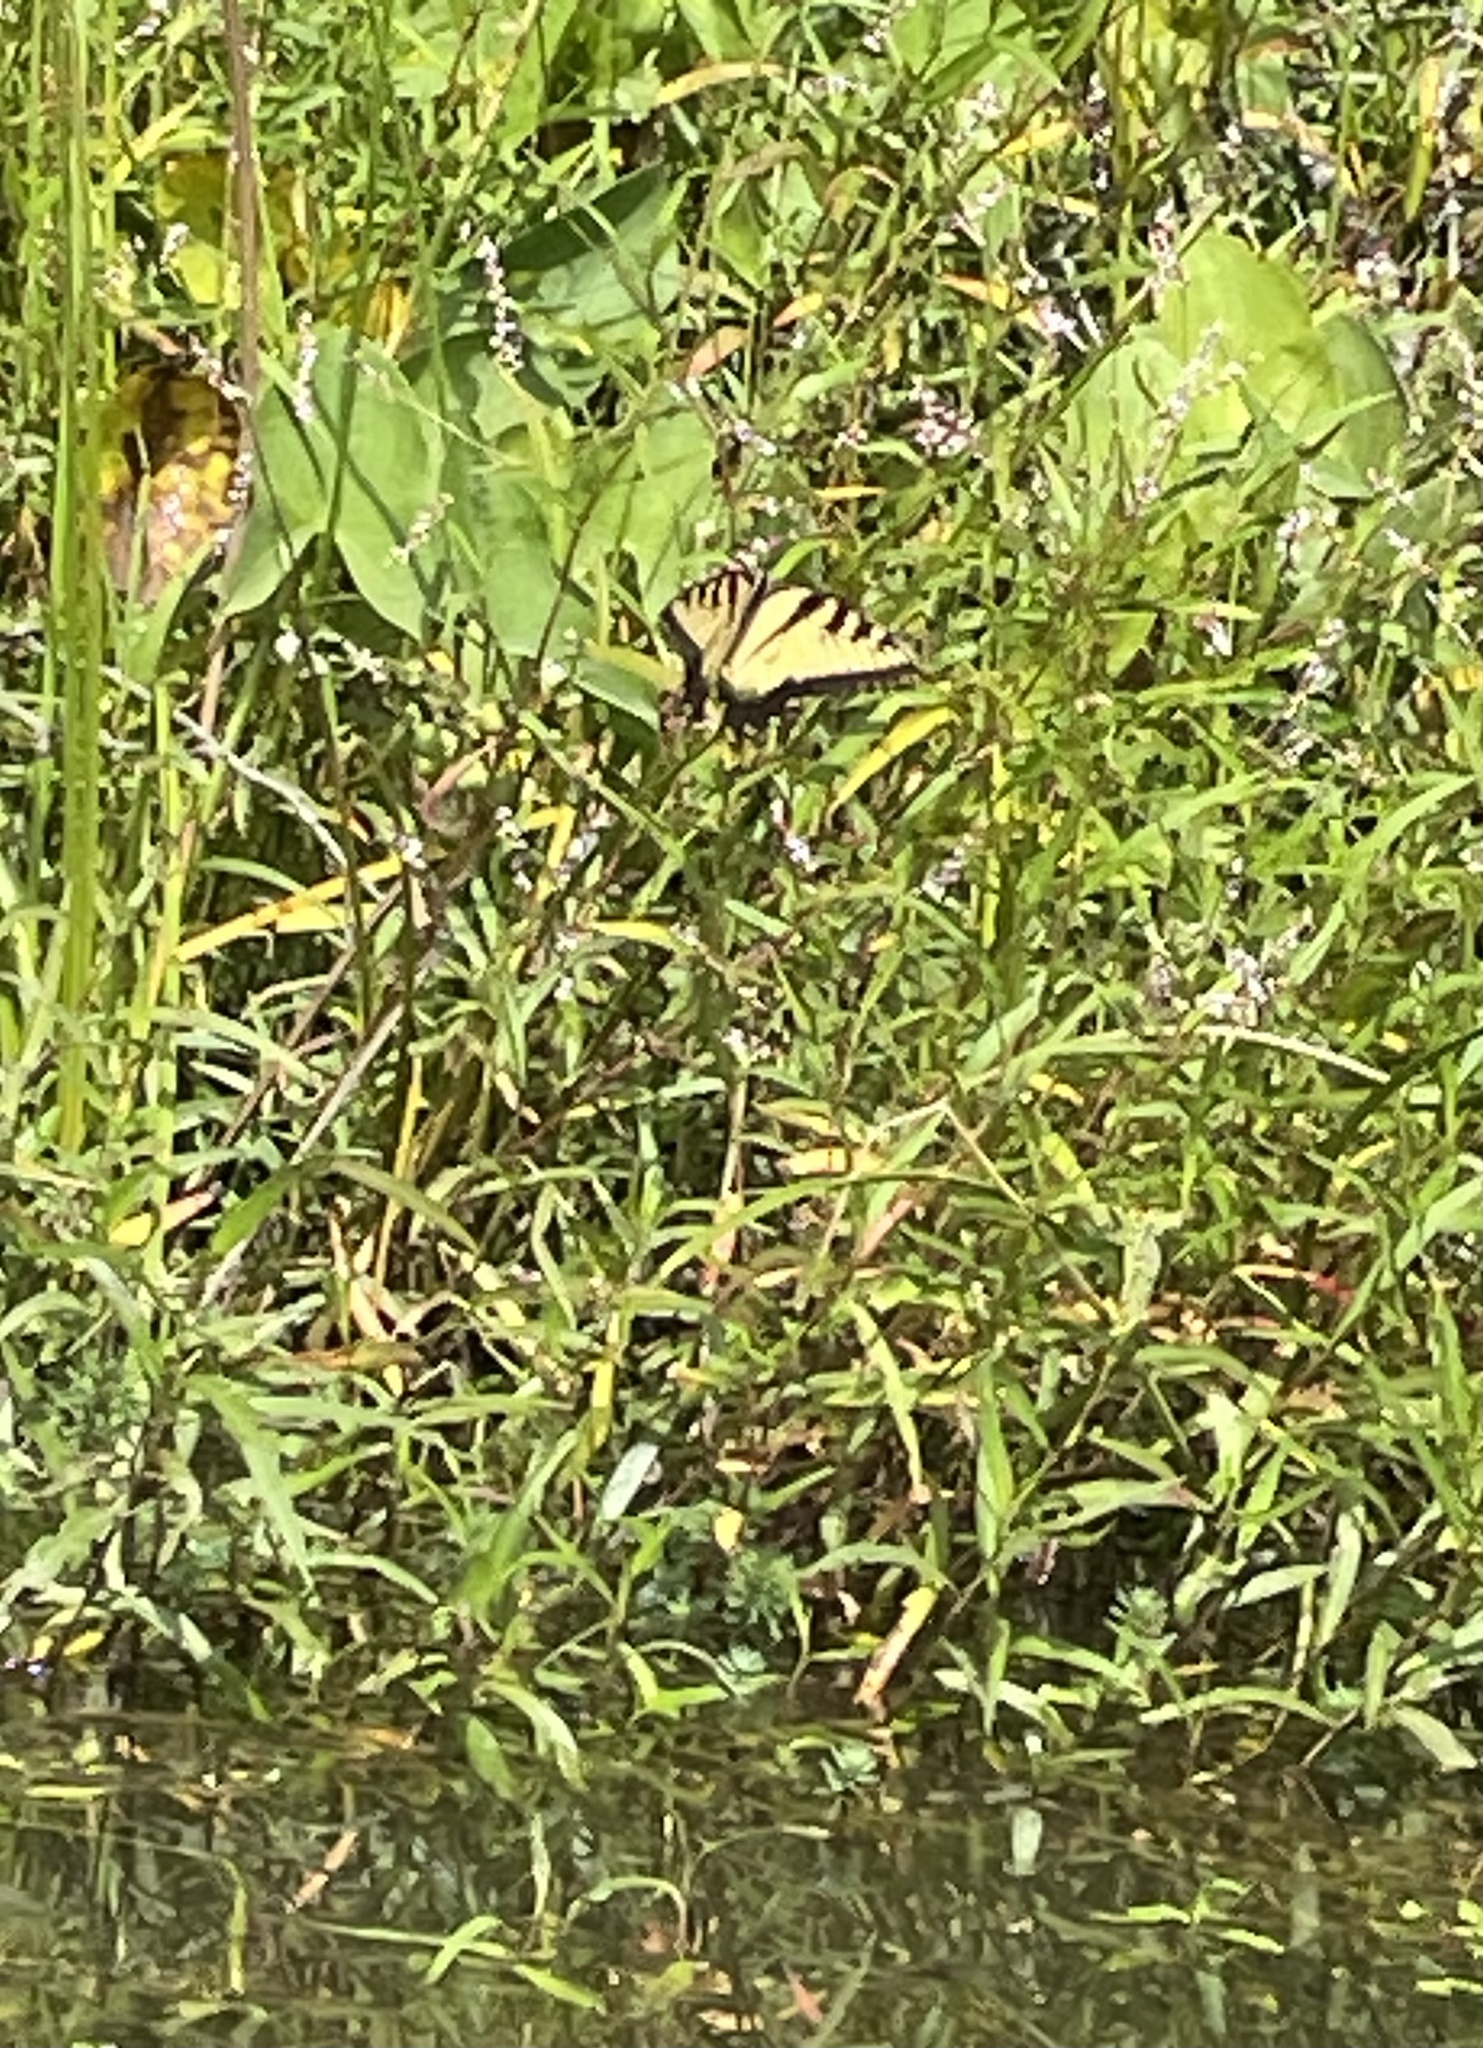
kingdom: Animalia
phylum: Arthropoda
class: Insecta
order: Lepidoptera
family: Papilionidae
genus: Papilio
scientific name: Papilio glaucus
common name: Tiger swallowtail
